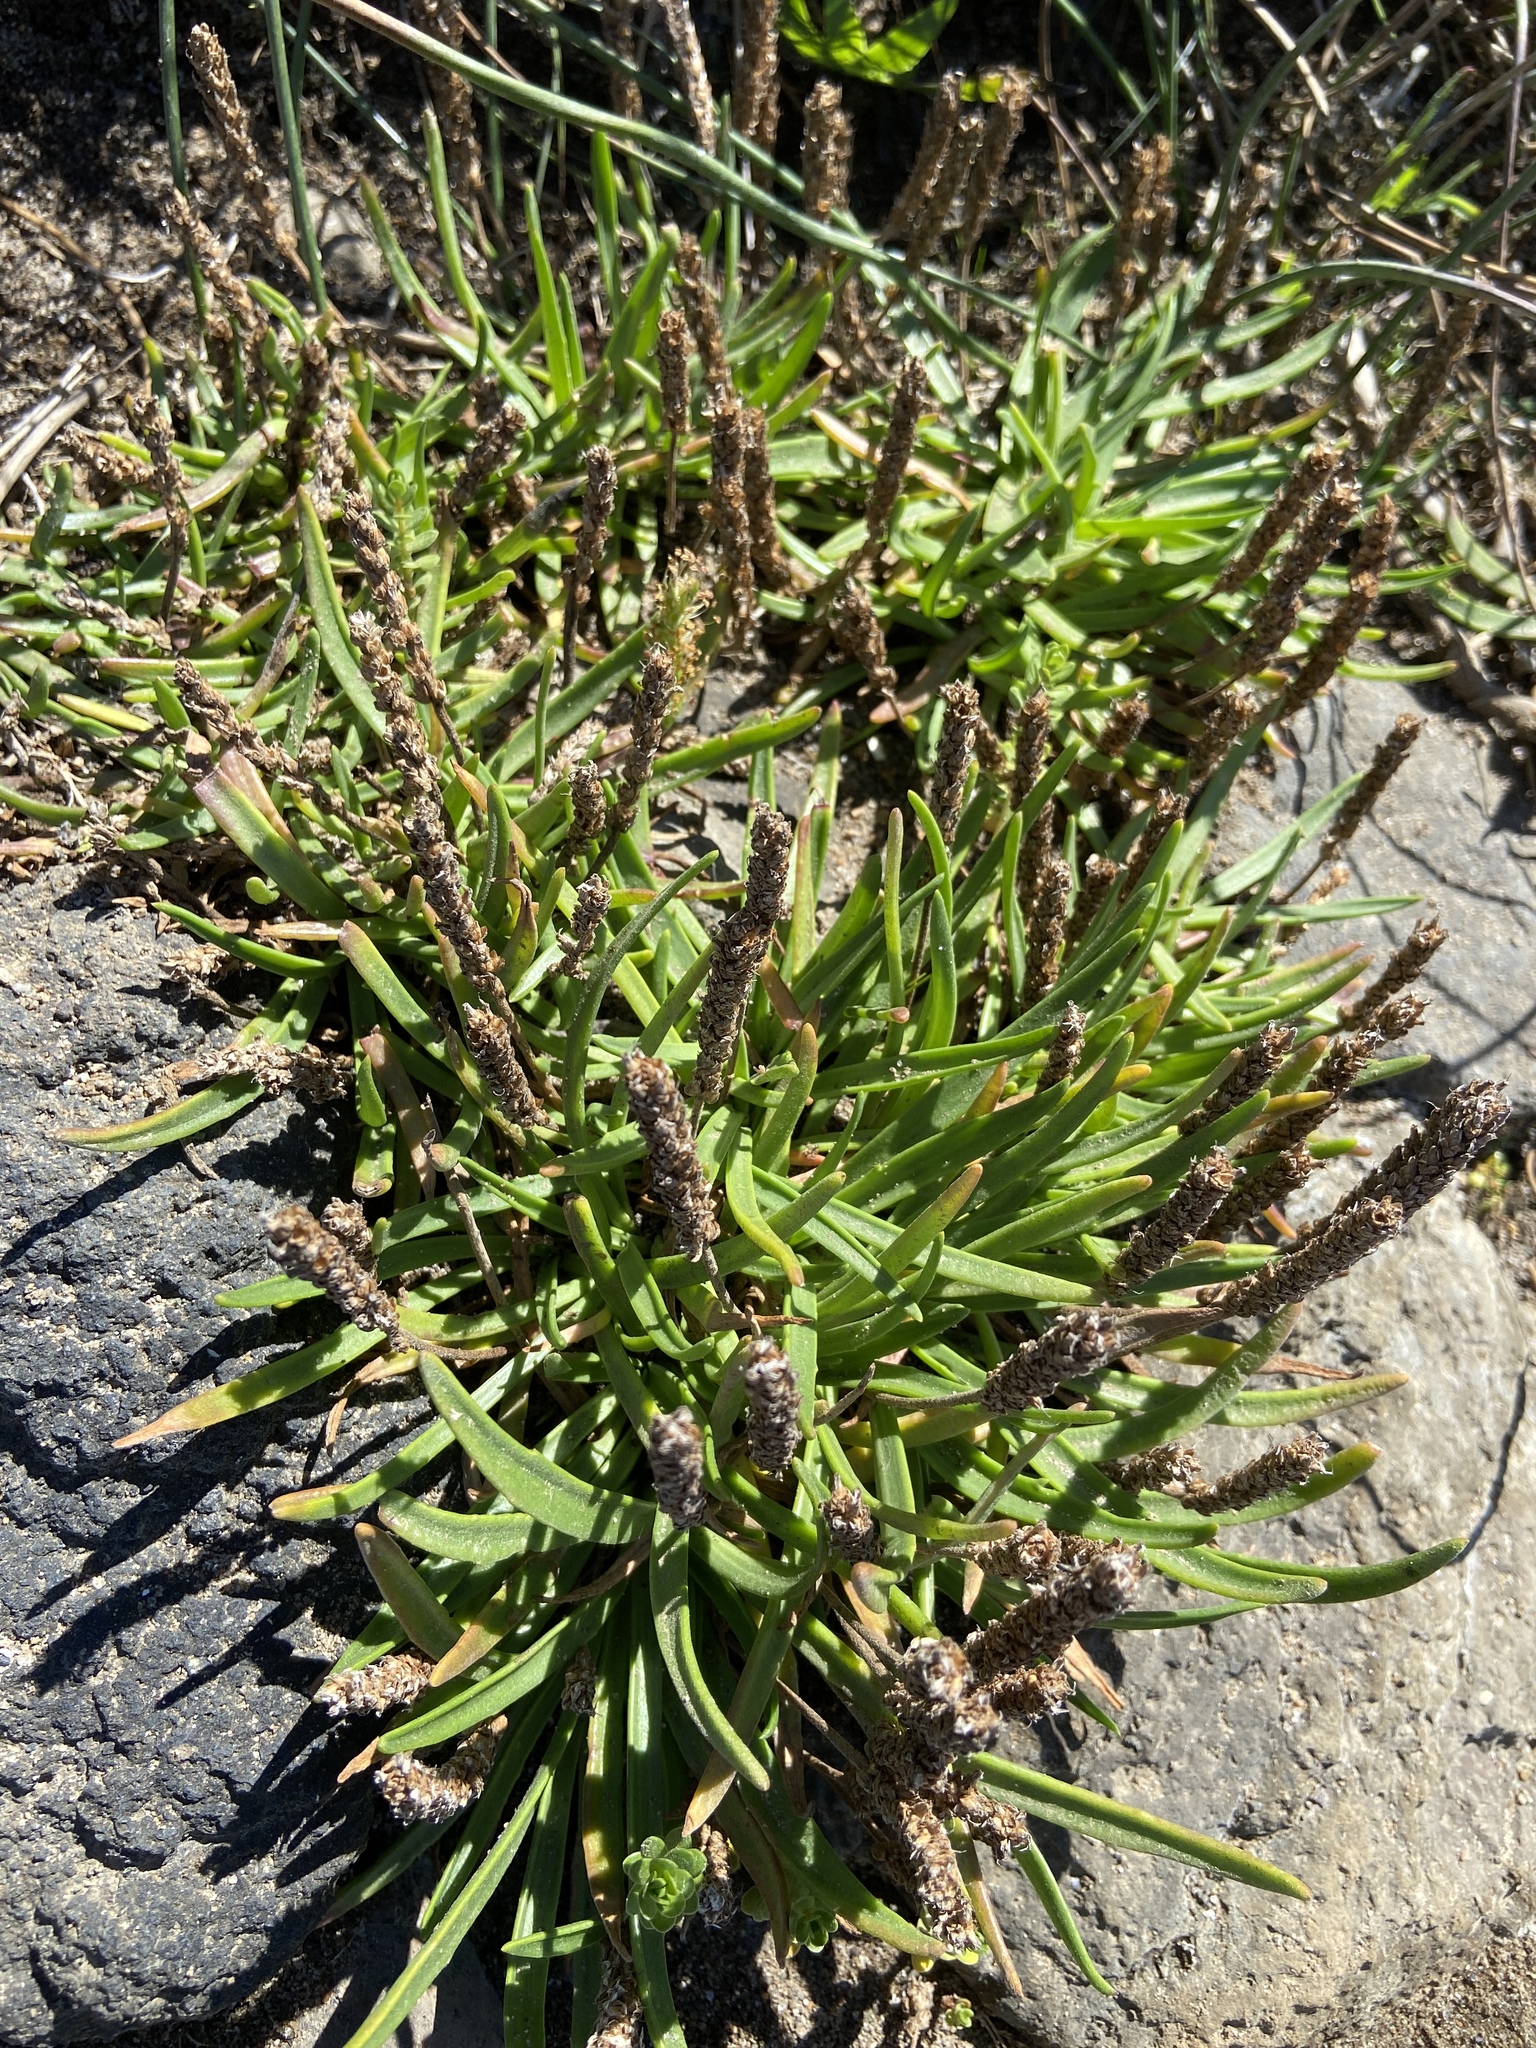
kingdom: Plantae
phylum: Tracheophyta
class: Magnoliopsida
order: Lamiales
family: Plantaginaceae
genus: Plantago
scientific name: Plantago maritima
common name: Sea plantain
